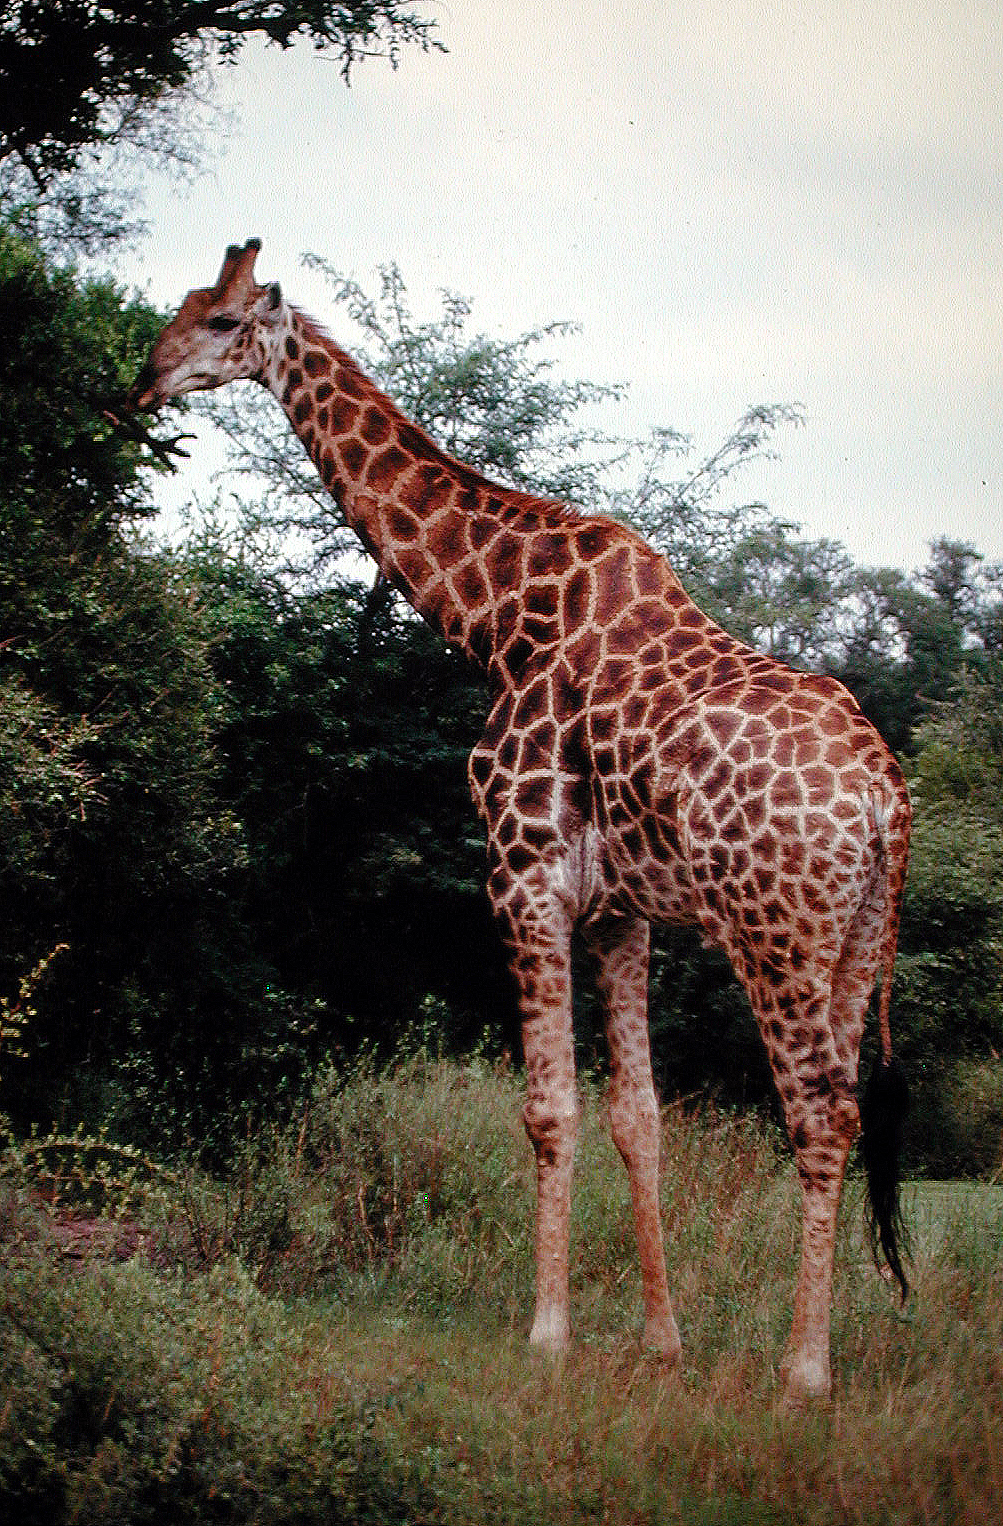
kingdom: Animalia
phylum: Chordata
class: Mammalia
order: Artiodactyla
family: Giraffidae
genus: Giraffa
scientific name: Giraffa giraffa
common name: Southern giraffe
